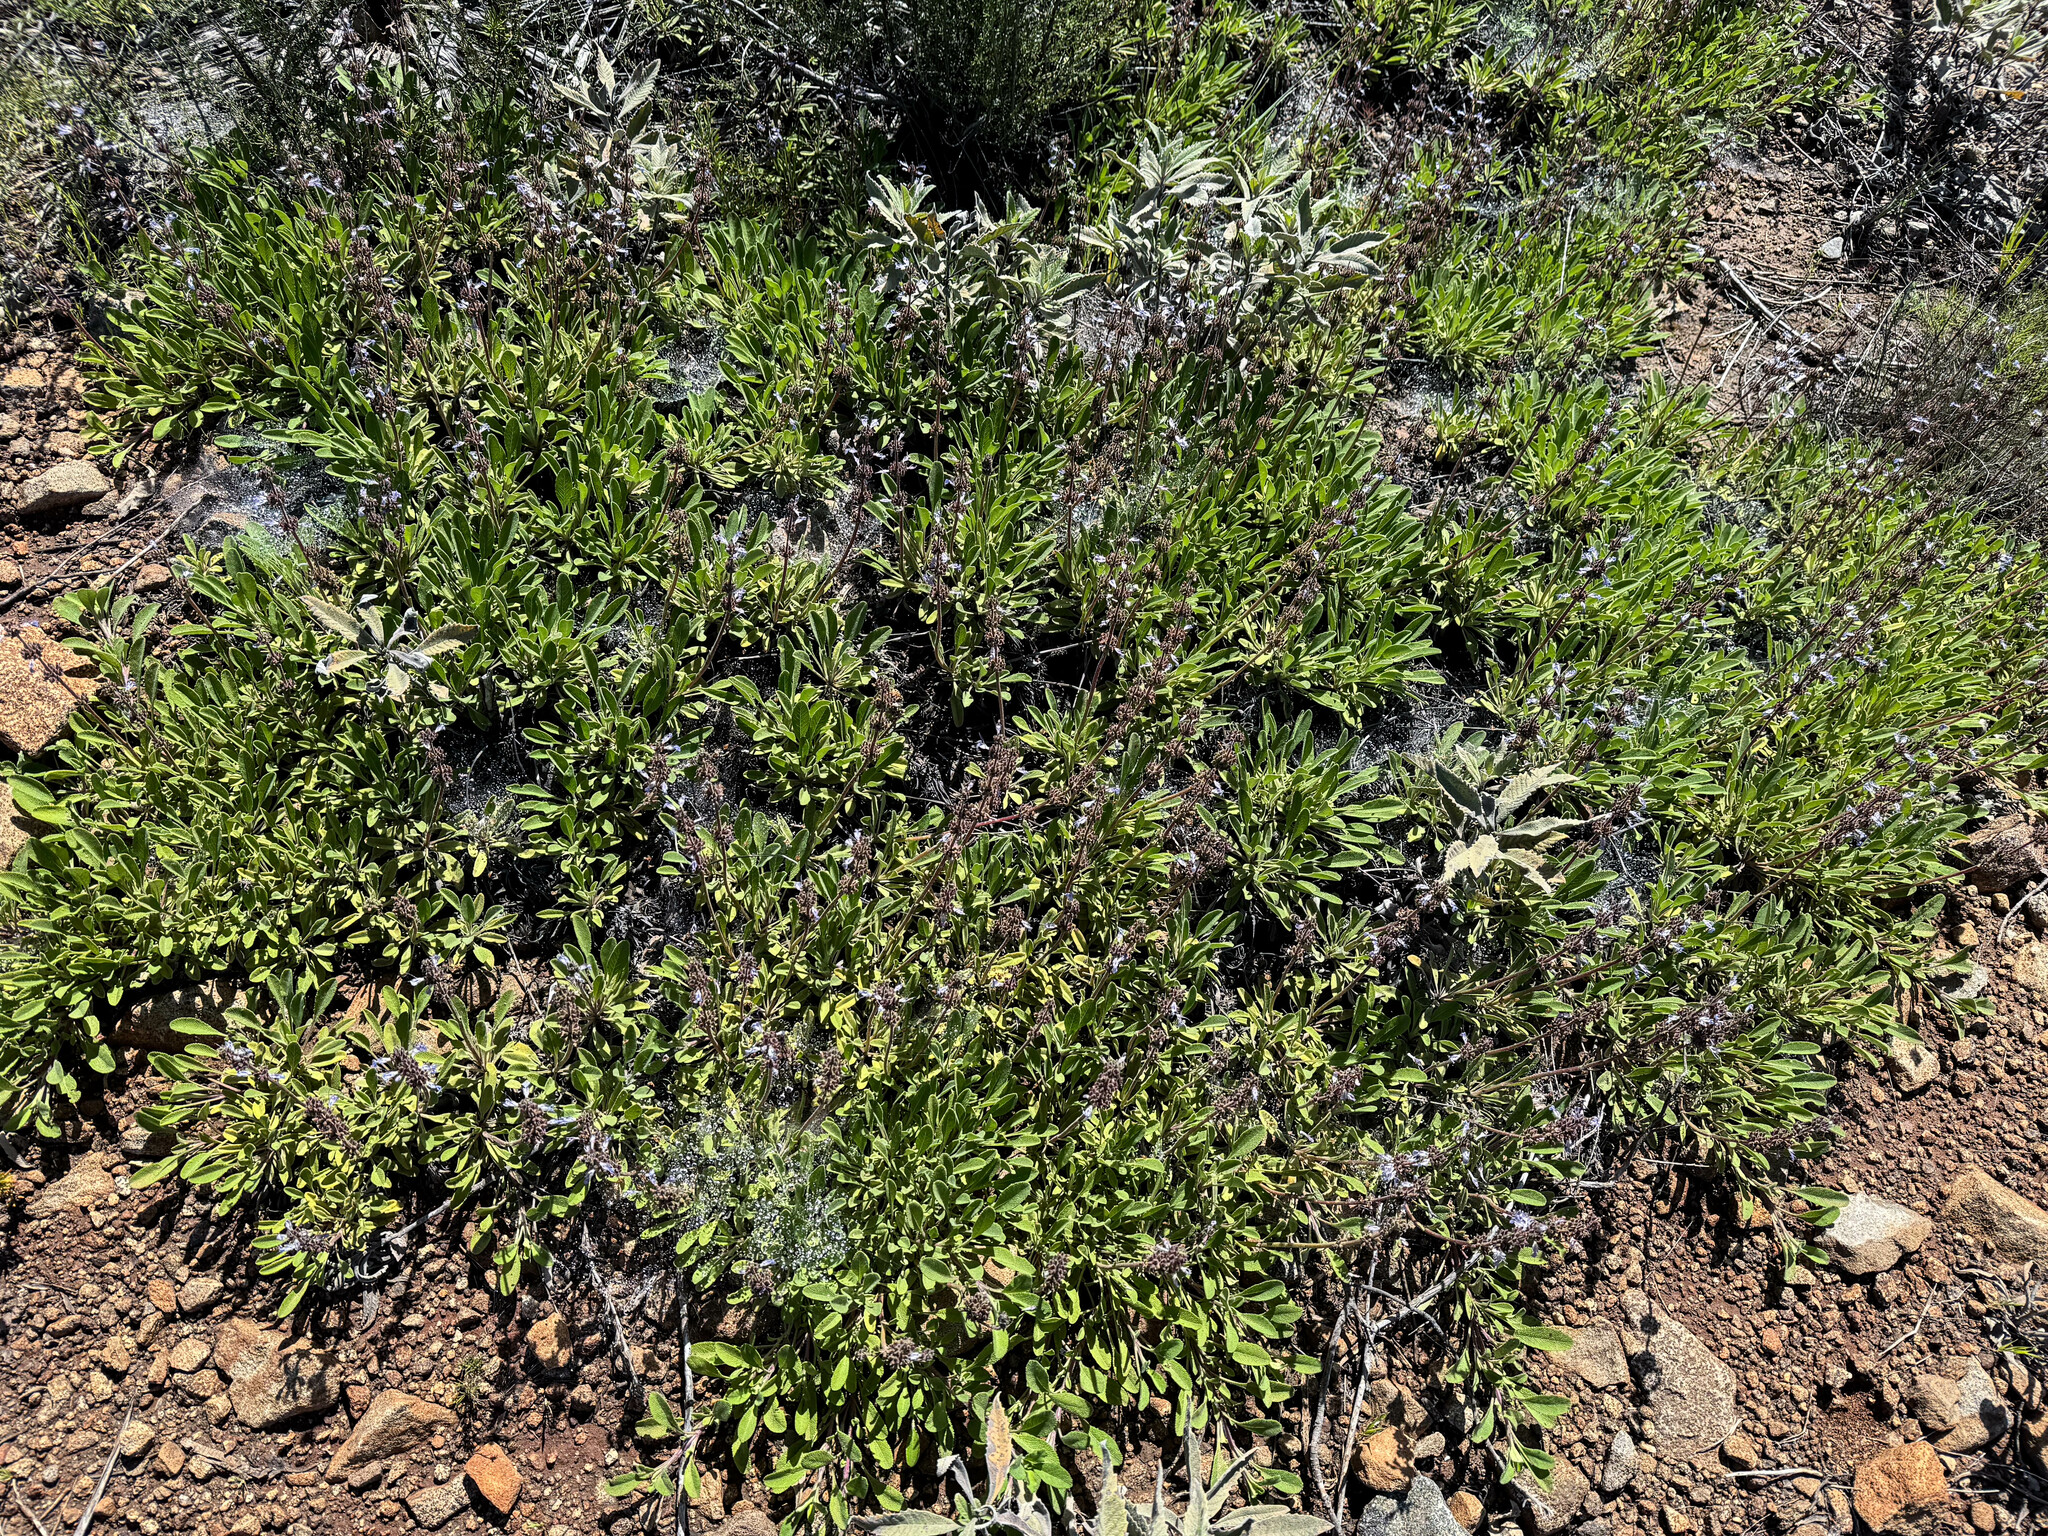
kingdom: Plantae
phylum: Tracheophyta
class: Magnoliopsida
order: Lamiales
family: Lamiaceae
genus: Salvia
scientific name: Salvia sonomensis
